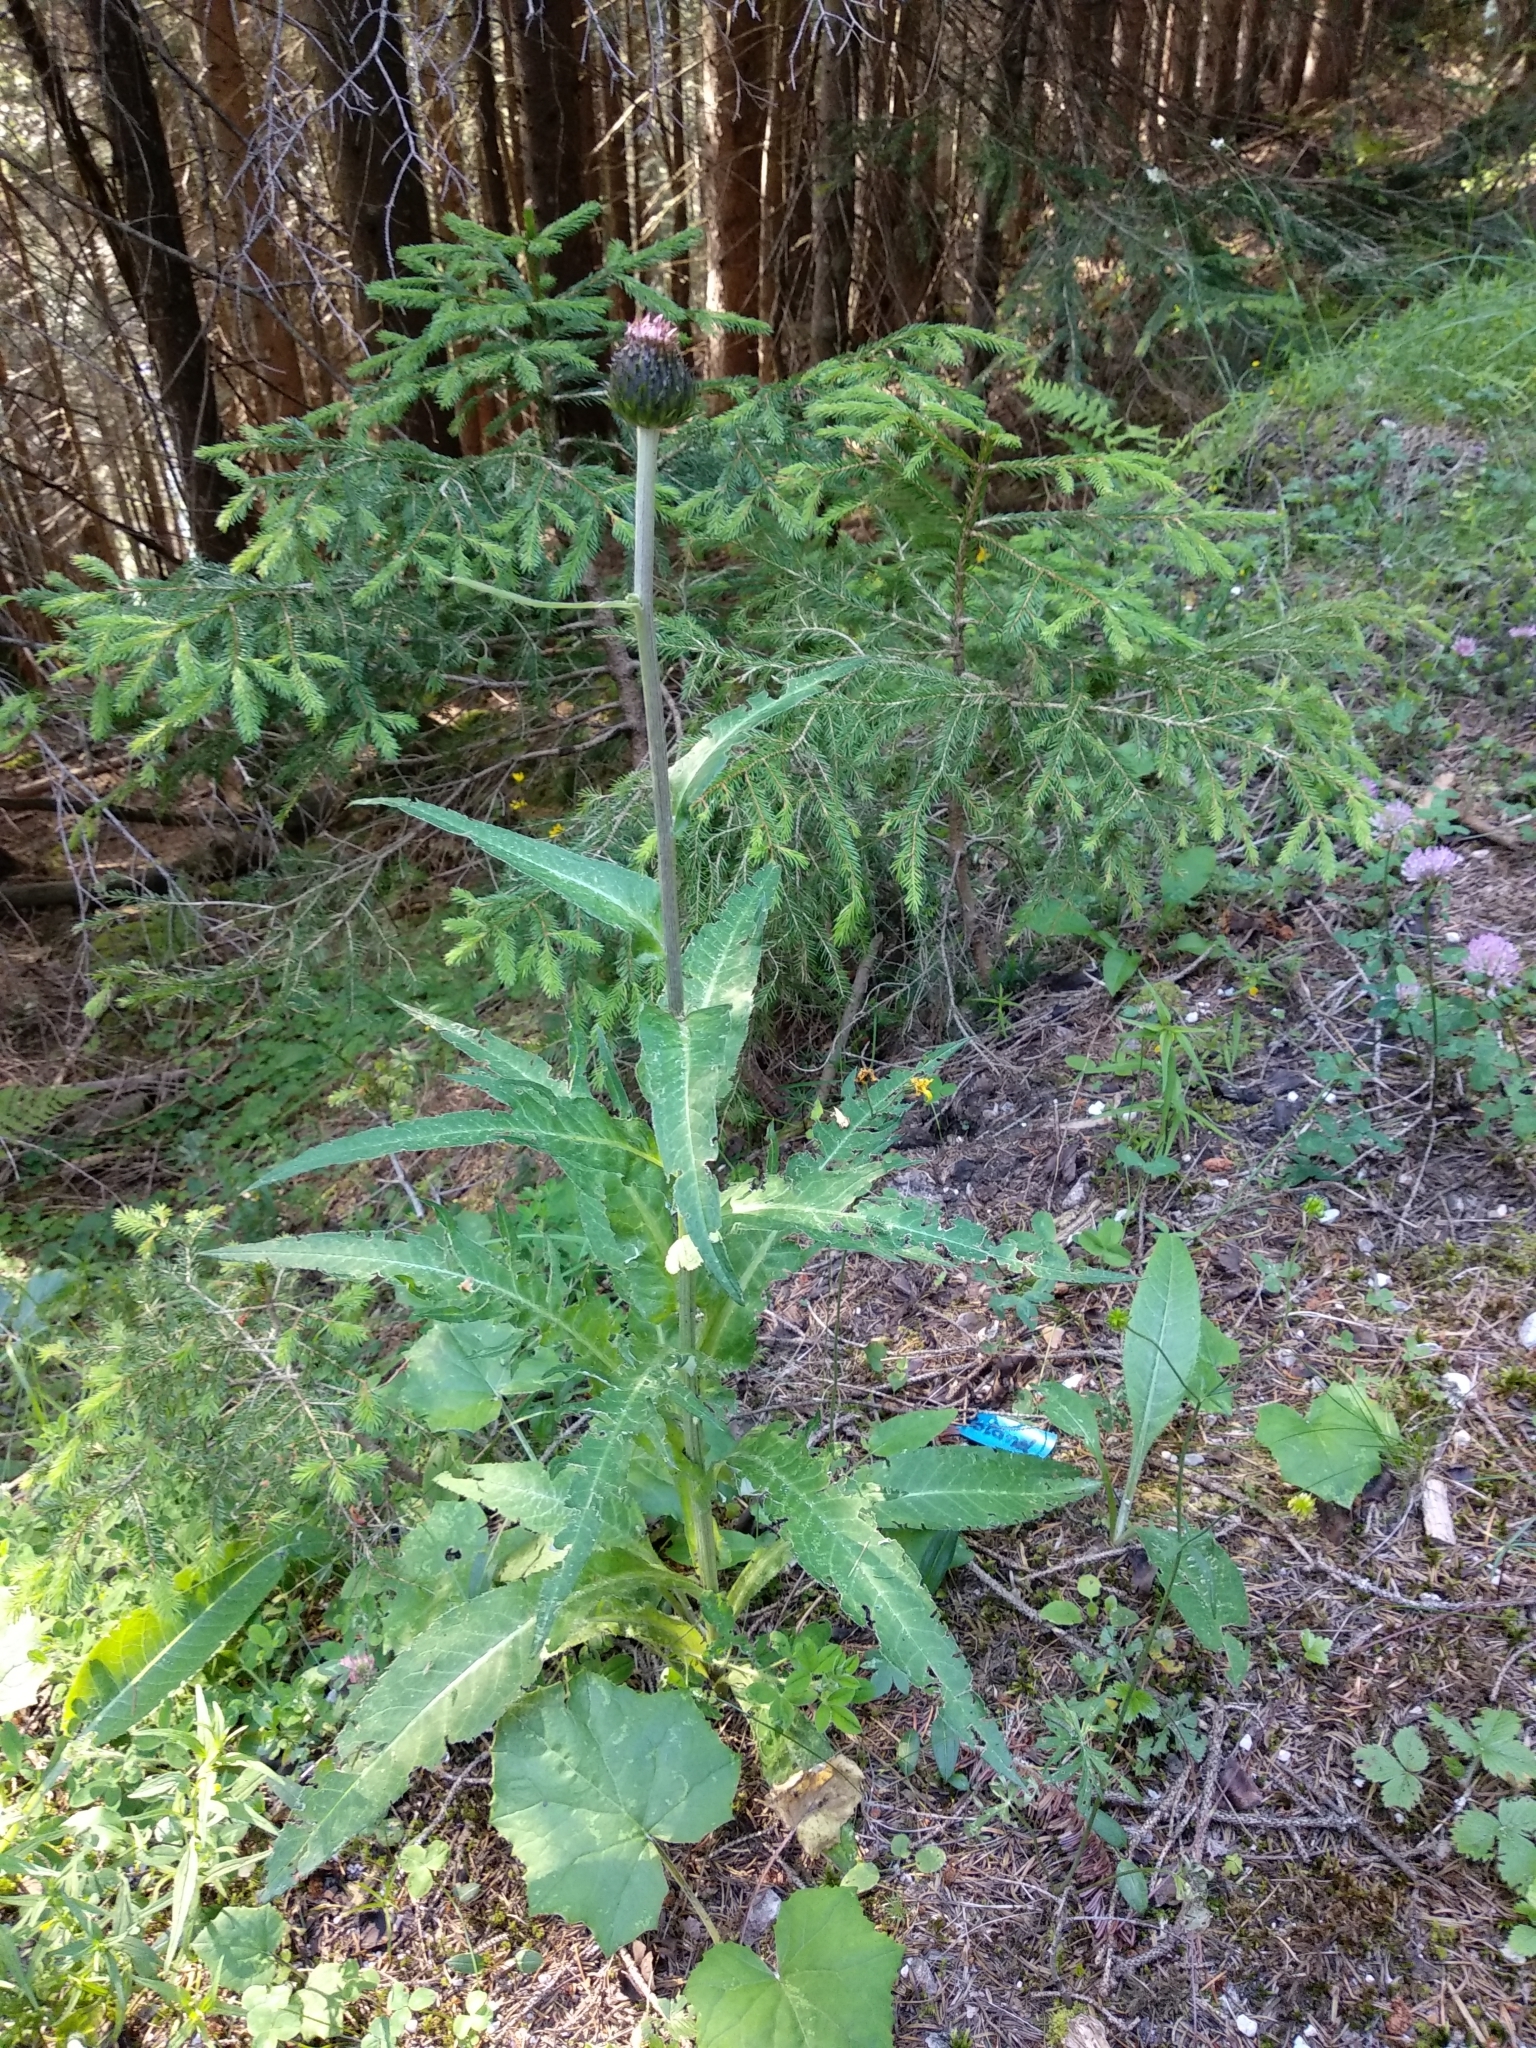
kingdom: Plantae
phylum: Tracheophyta
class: Magnoliopsida
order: Asterales
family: Asteraceae
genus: Cirsium
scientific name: Cirsium heterophyllum
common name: Melancholy thistle
